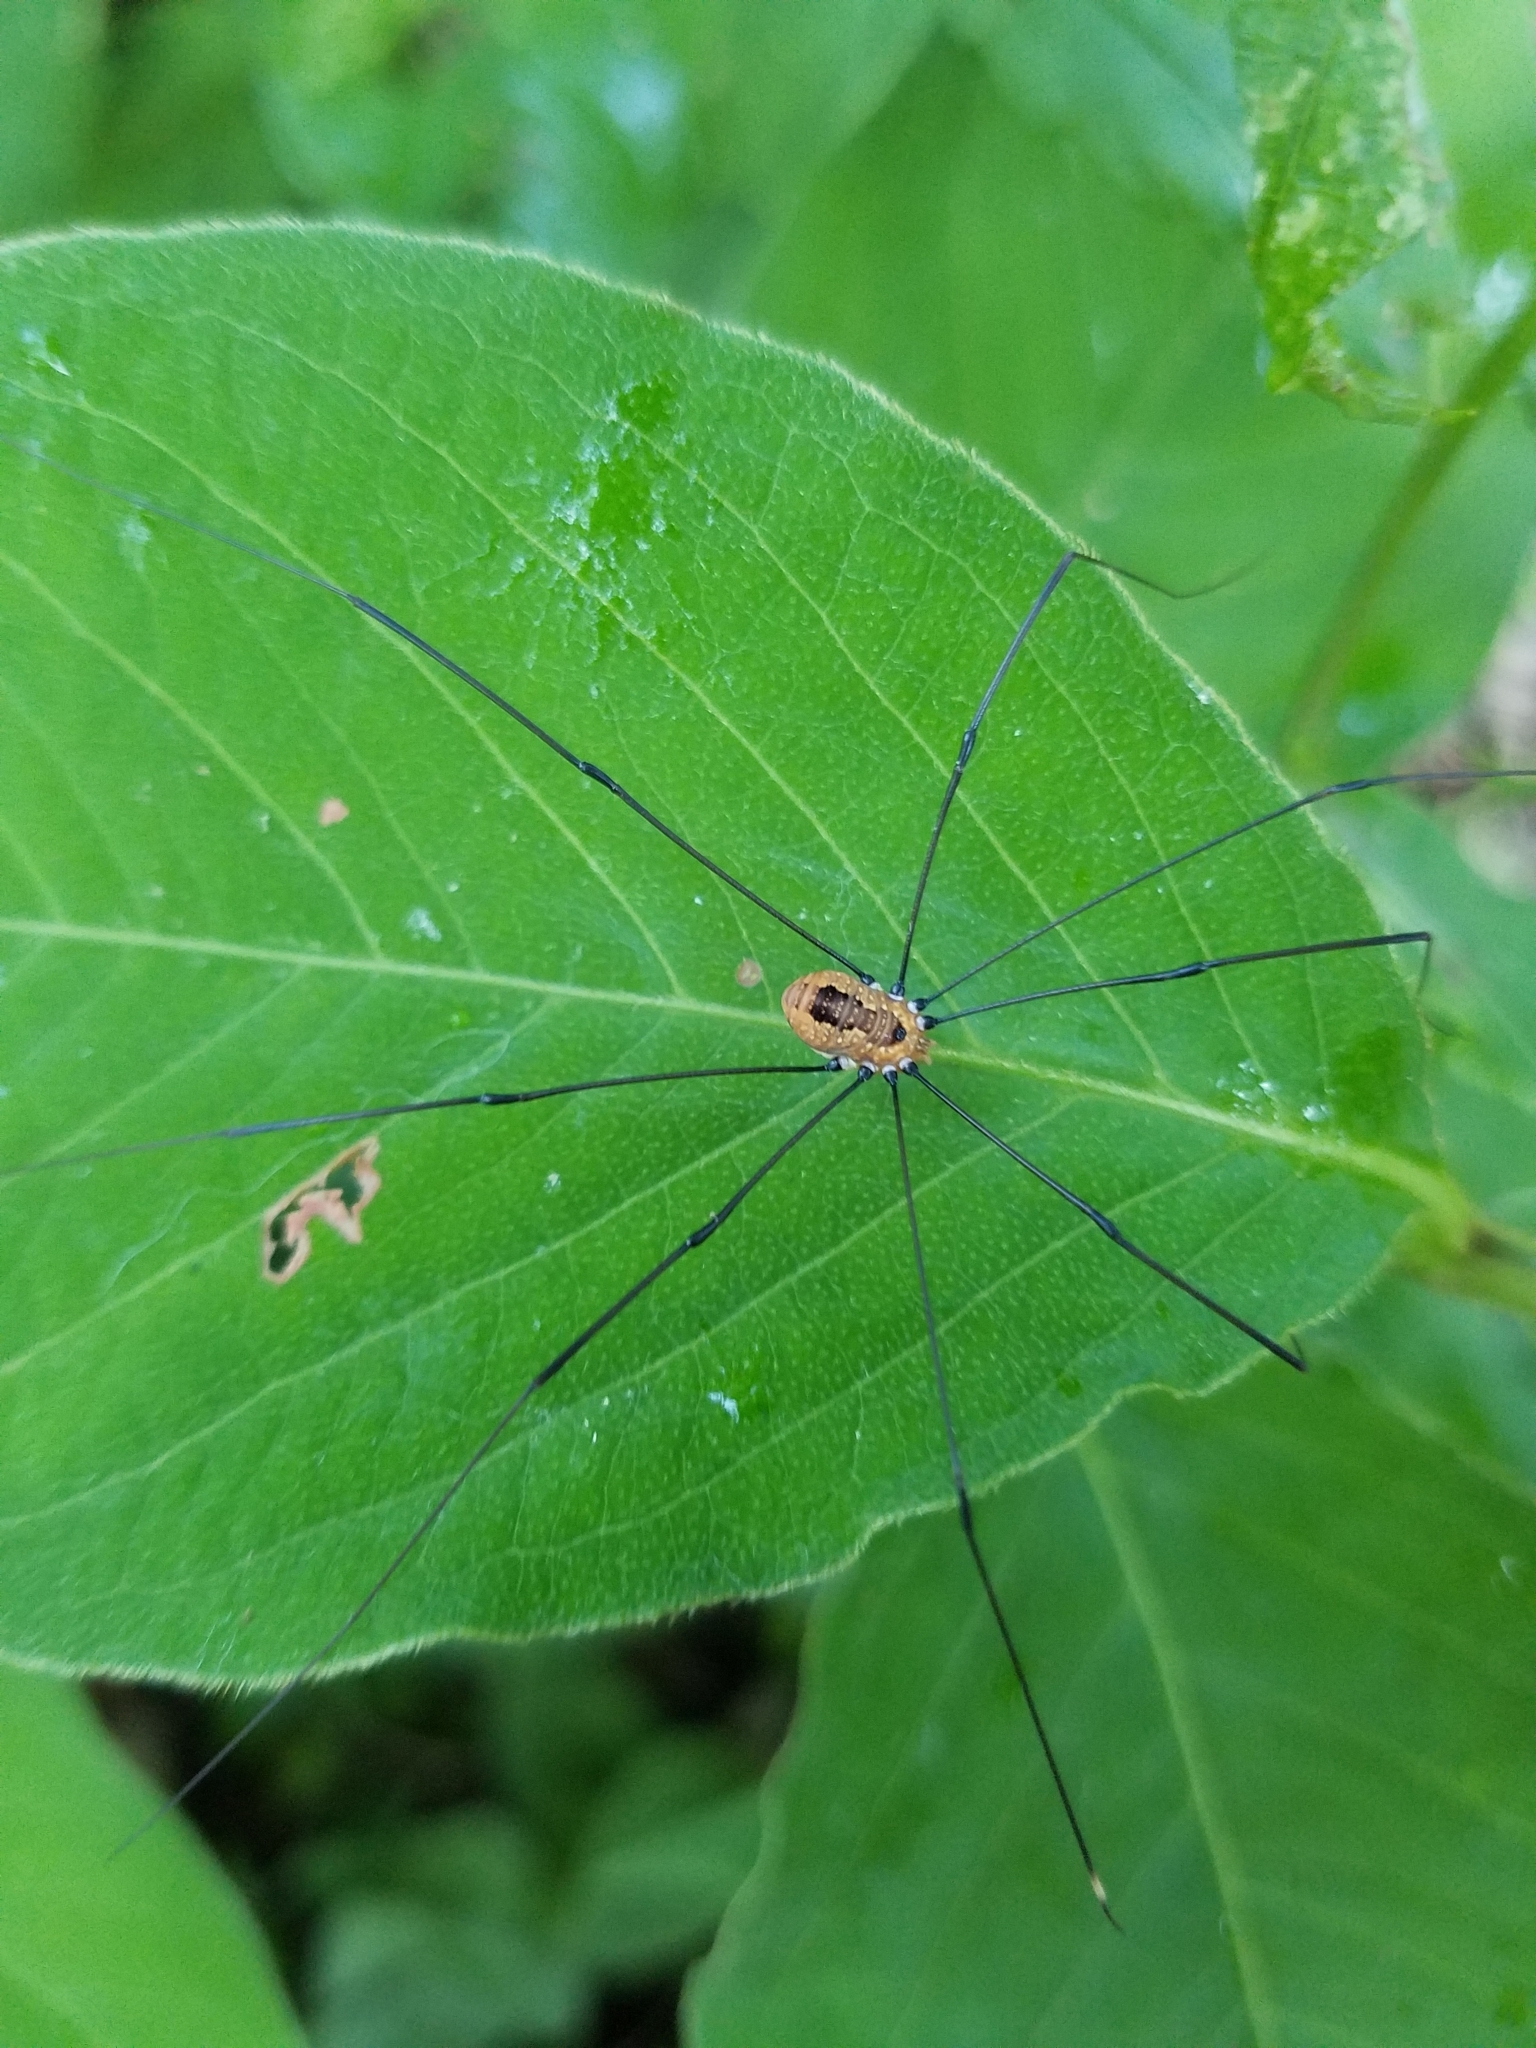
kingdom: Animalia
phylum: Arthropoda
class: Arachnida
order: Opiliones
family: Sclerosomatidae
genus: Leiobunum
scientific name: Leiobunum aldrichi
